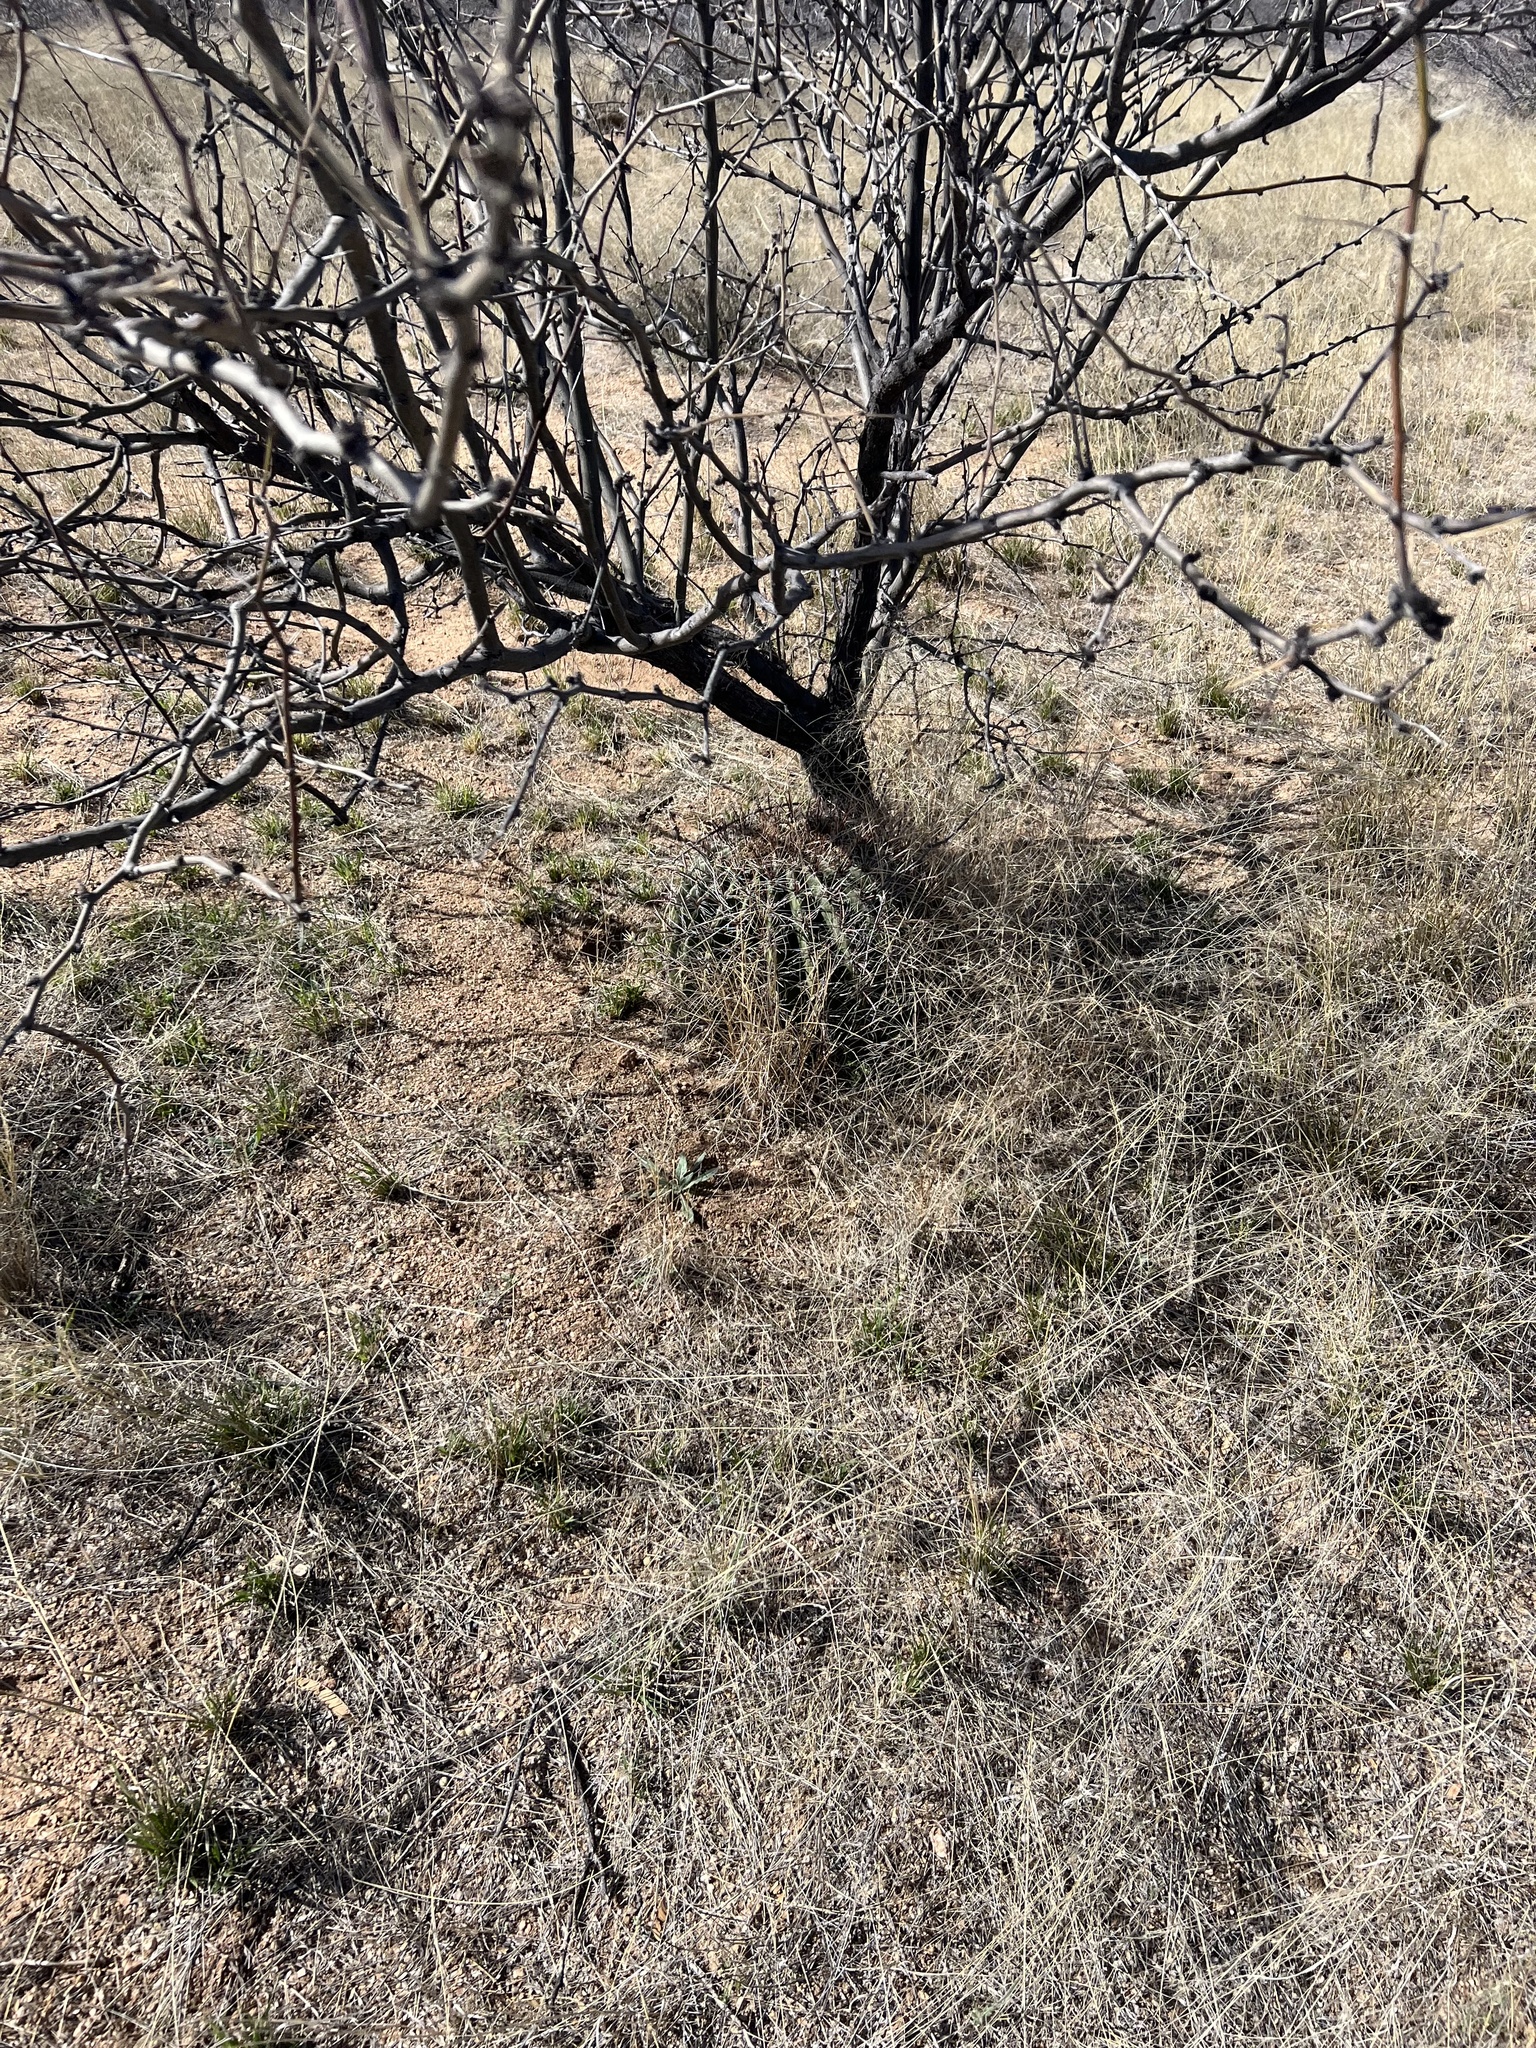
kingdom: Plantae
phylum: Tracheophyta
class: Magnoliopsida
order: Caryophyllales
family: Cactaceae
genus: Ferocactus
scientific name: Ferocactus wislizeni
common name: Candy barrel cactus
